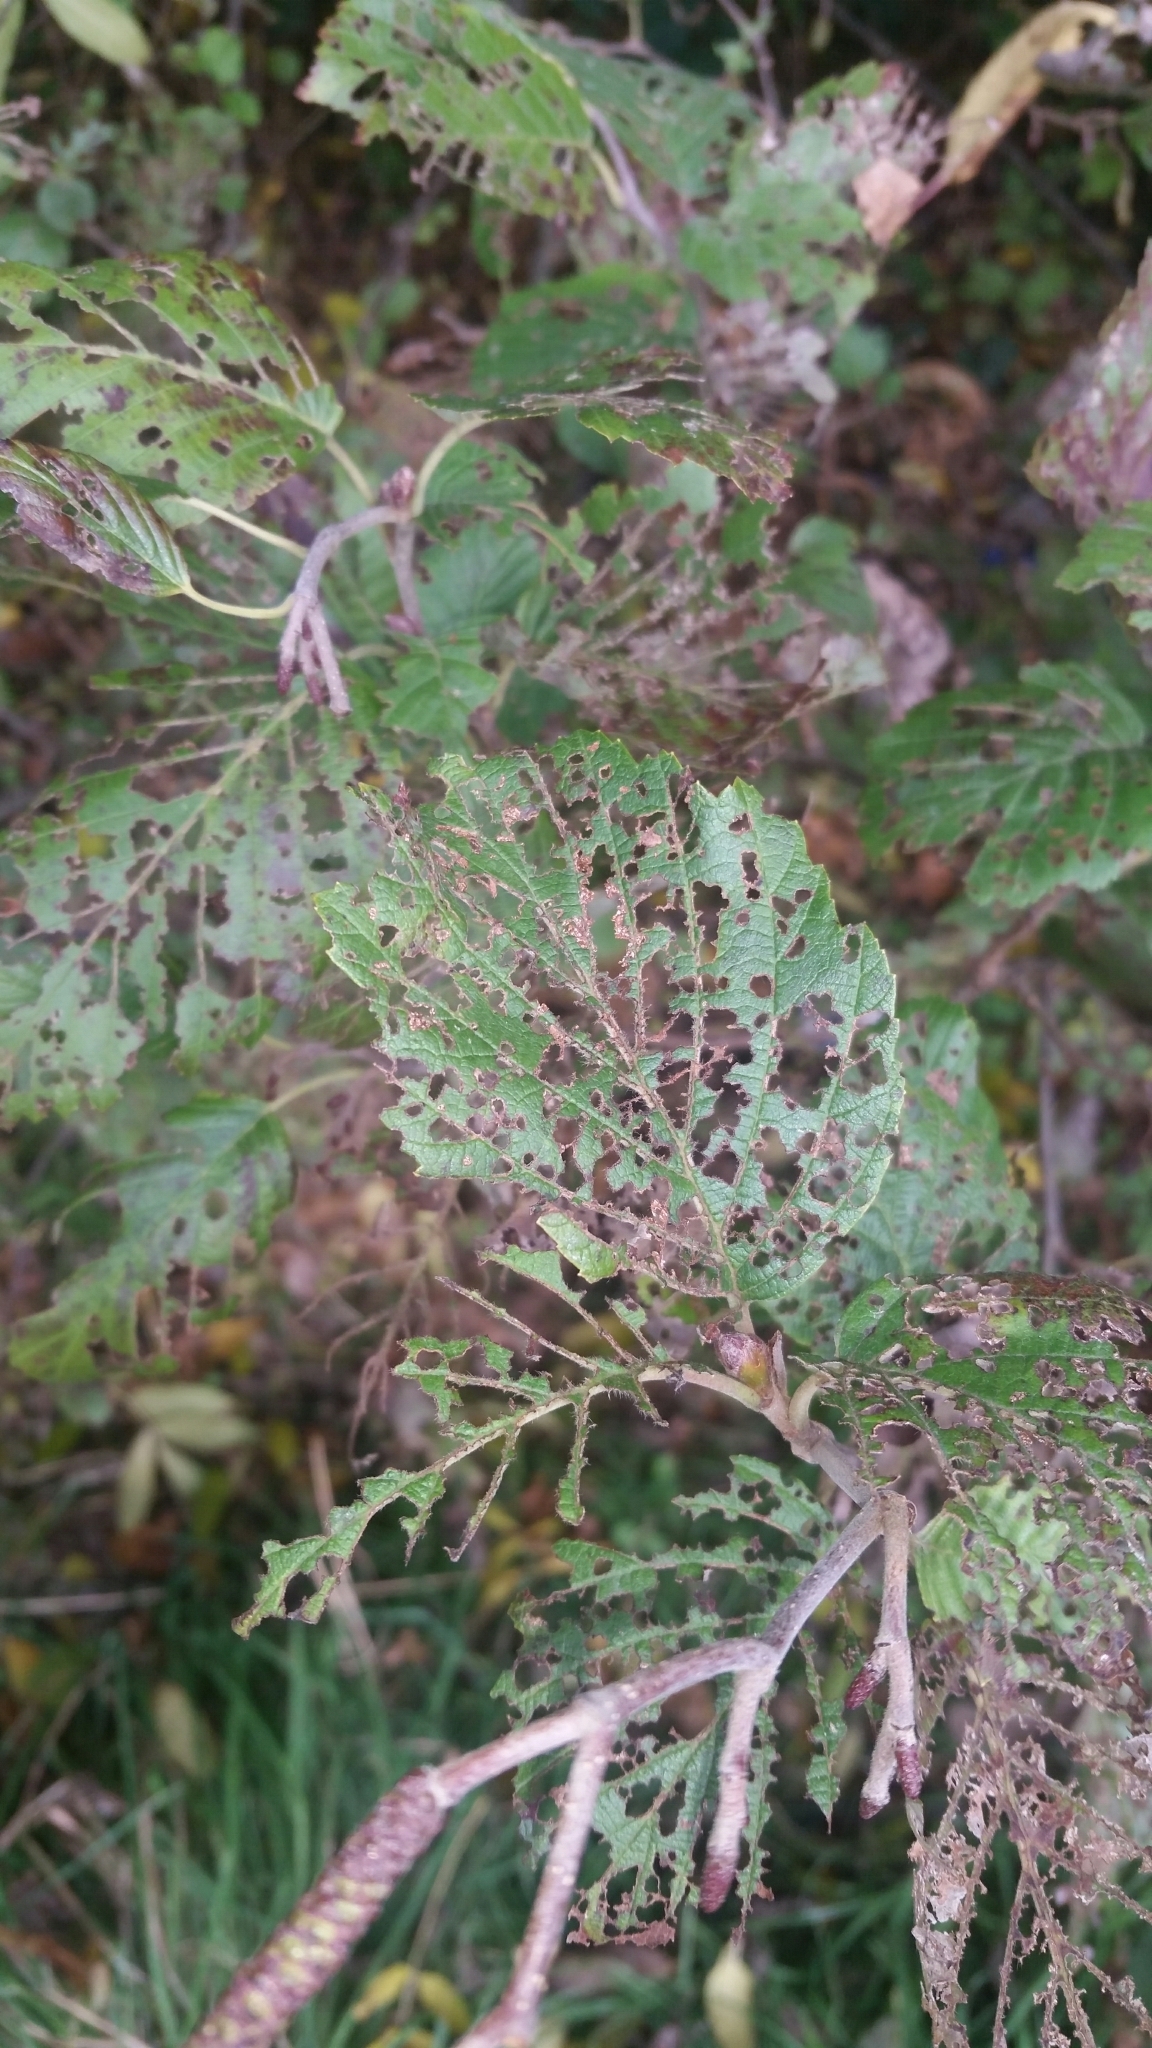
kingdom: Animalia
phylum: Arthropoda
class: Insecta
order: Coleoptera
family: Chrysomelidae
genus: Agelastica
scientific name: Agelastica alni
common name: Alder leaf beetle
